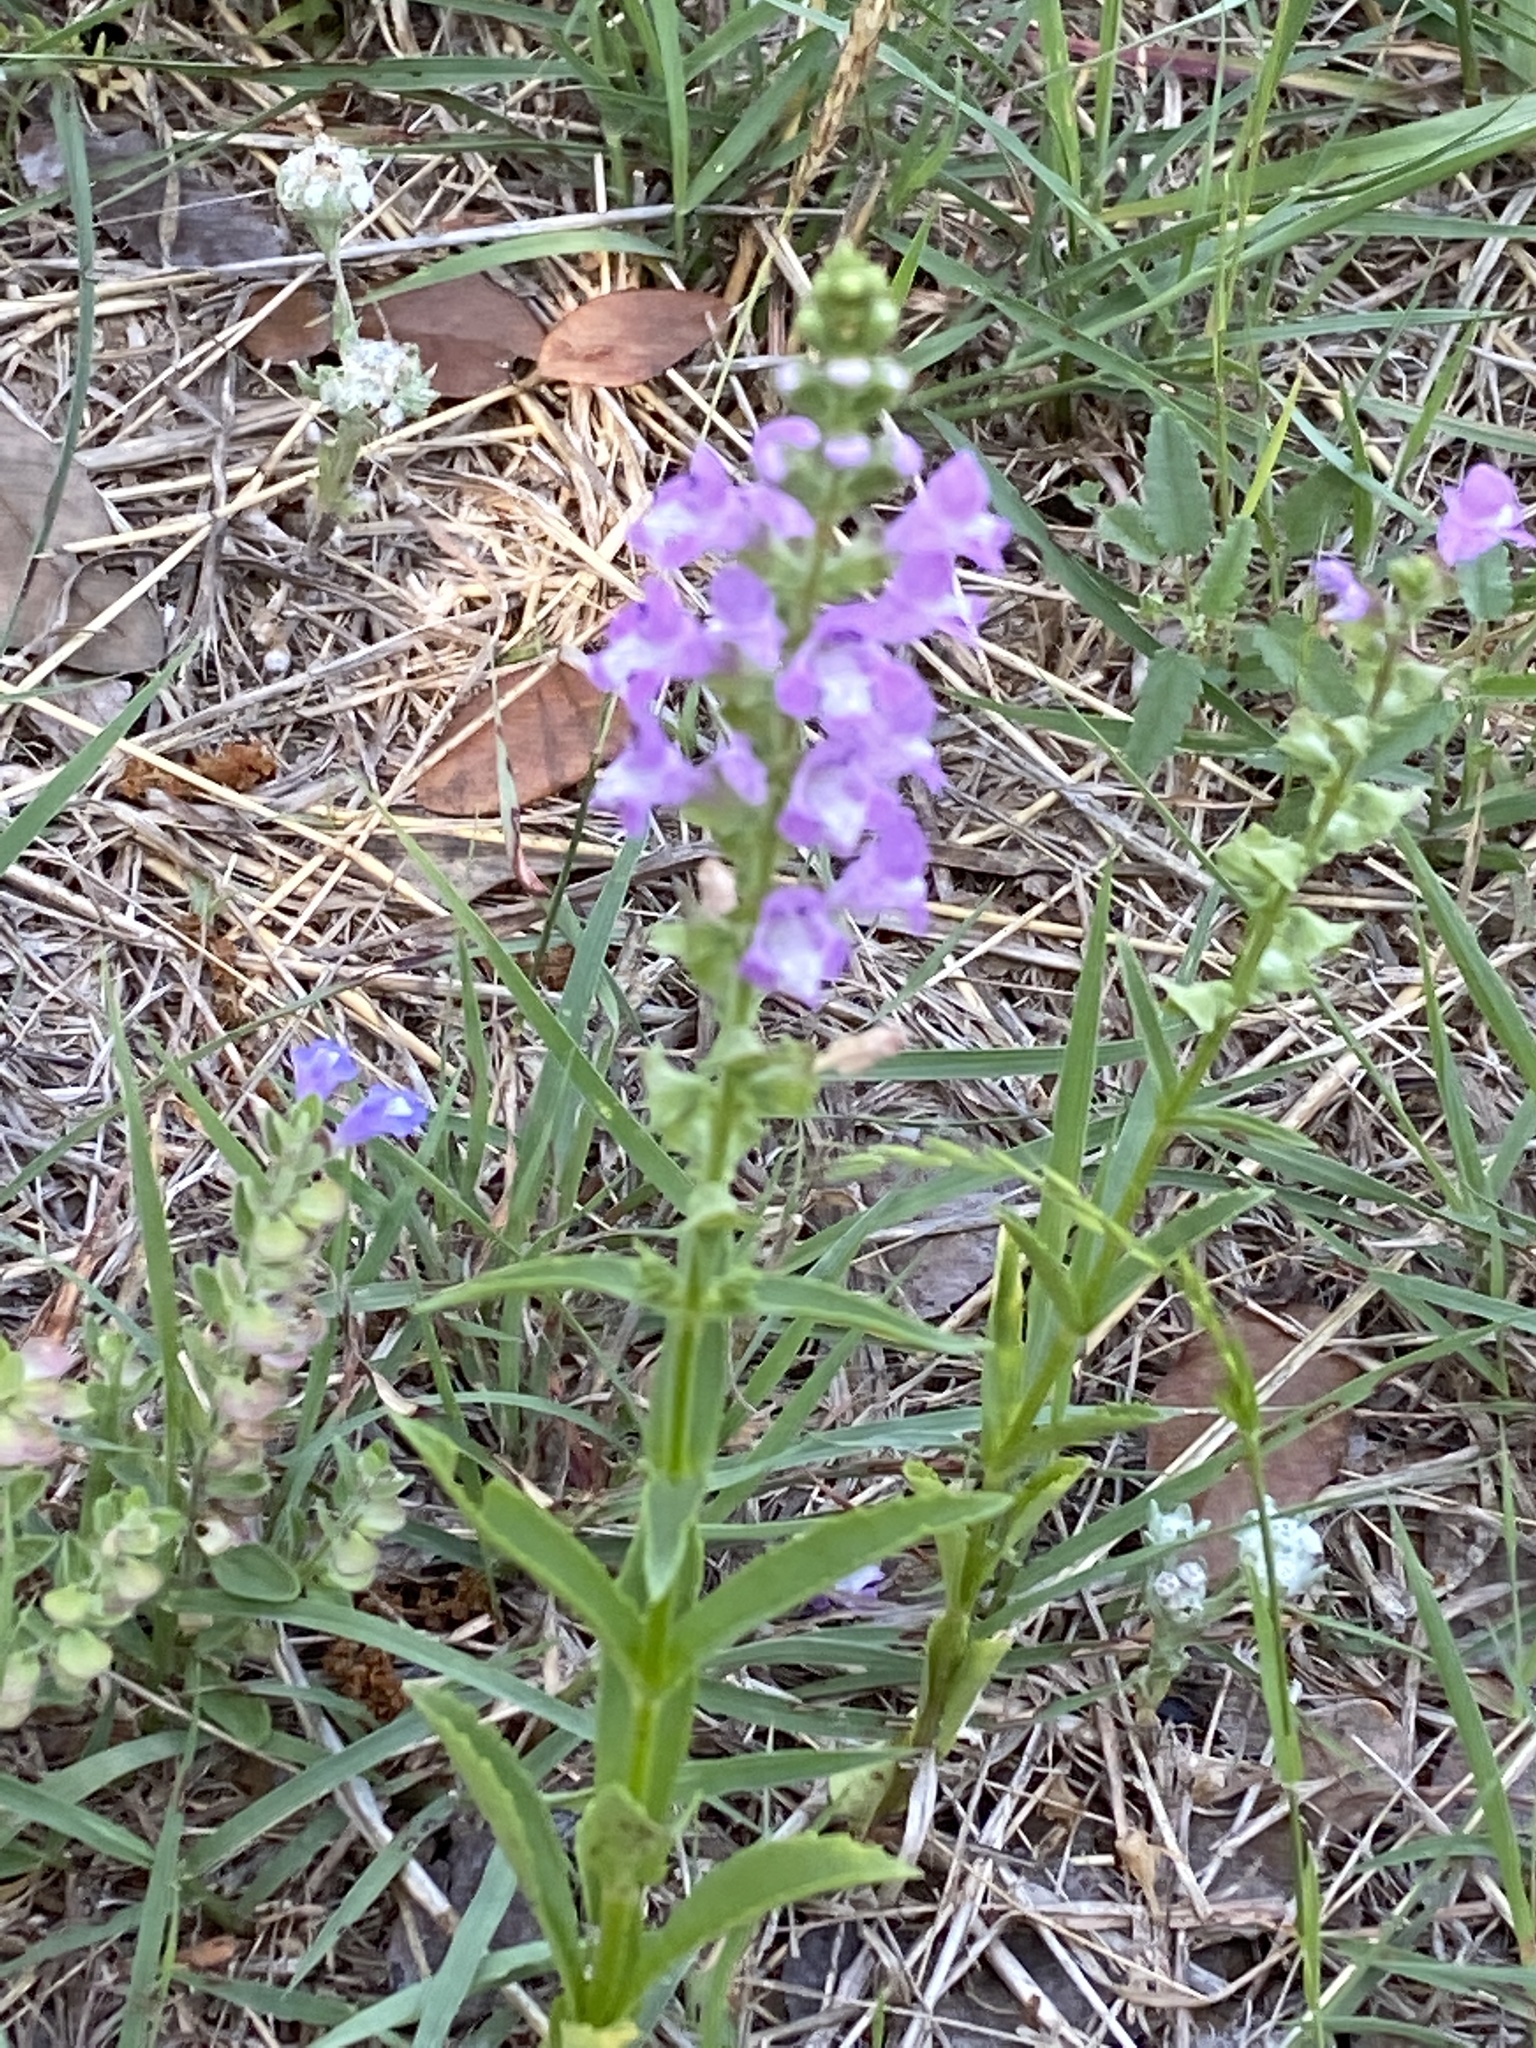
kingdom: Plantae
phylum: Tracheophyta
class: Magnoliopsida
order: Lamiales
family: Lamiaceae
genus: Warnockia
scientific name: Warnockia scutellarioides
